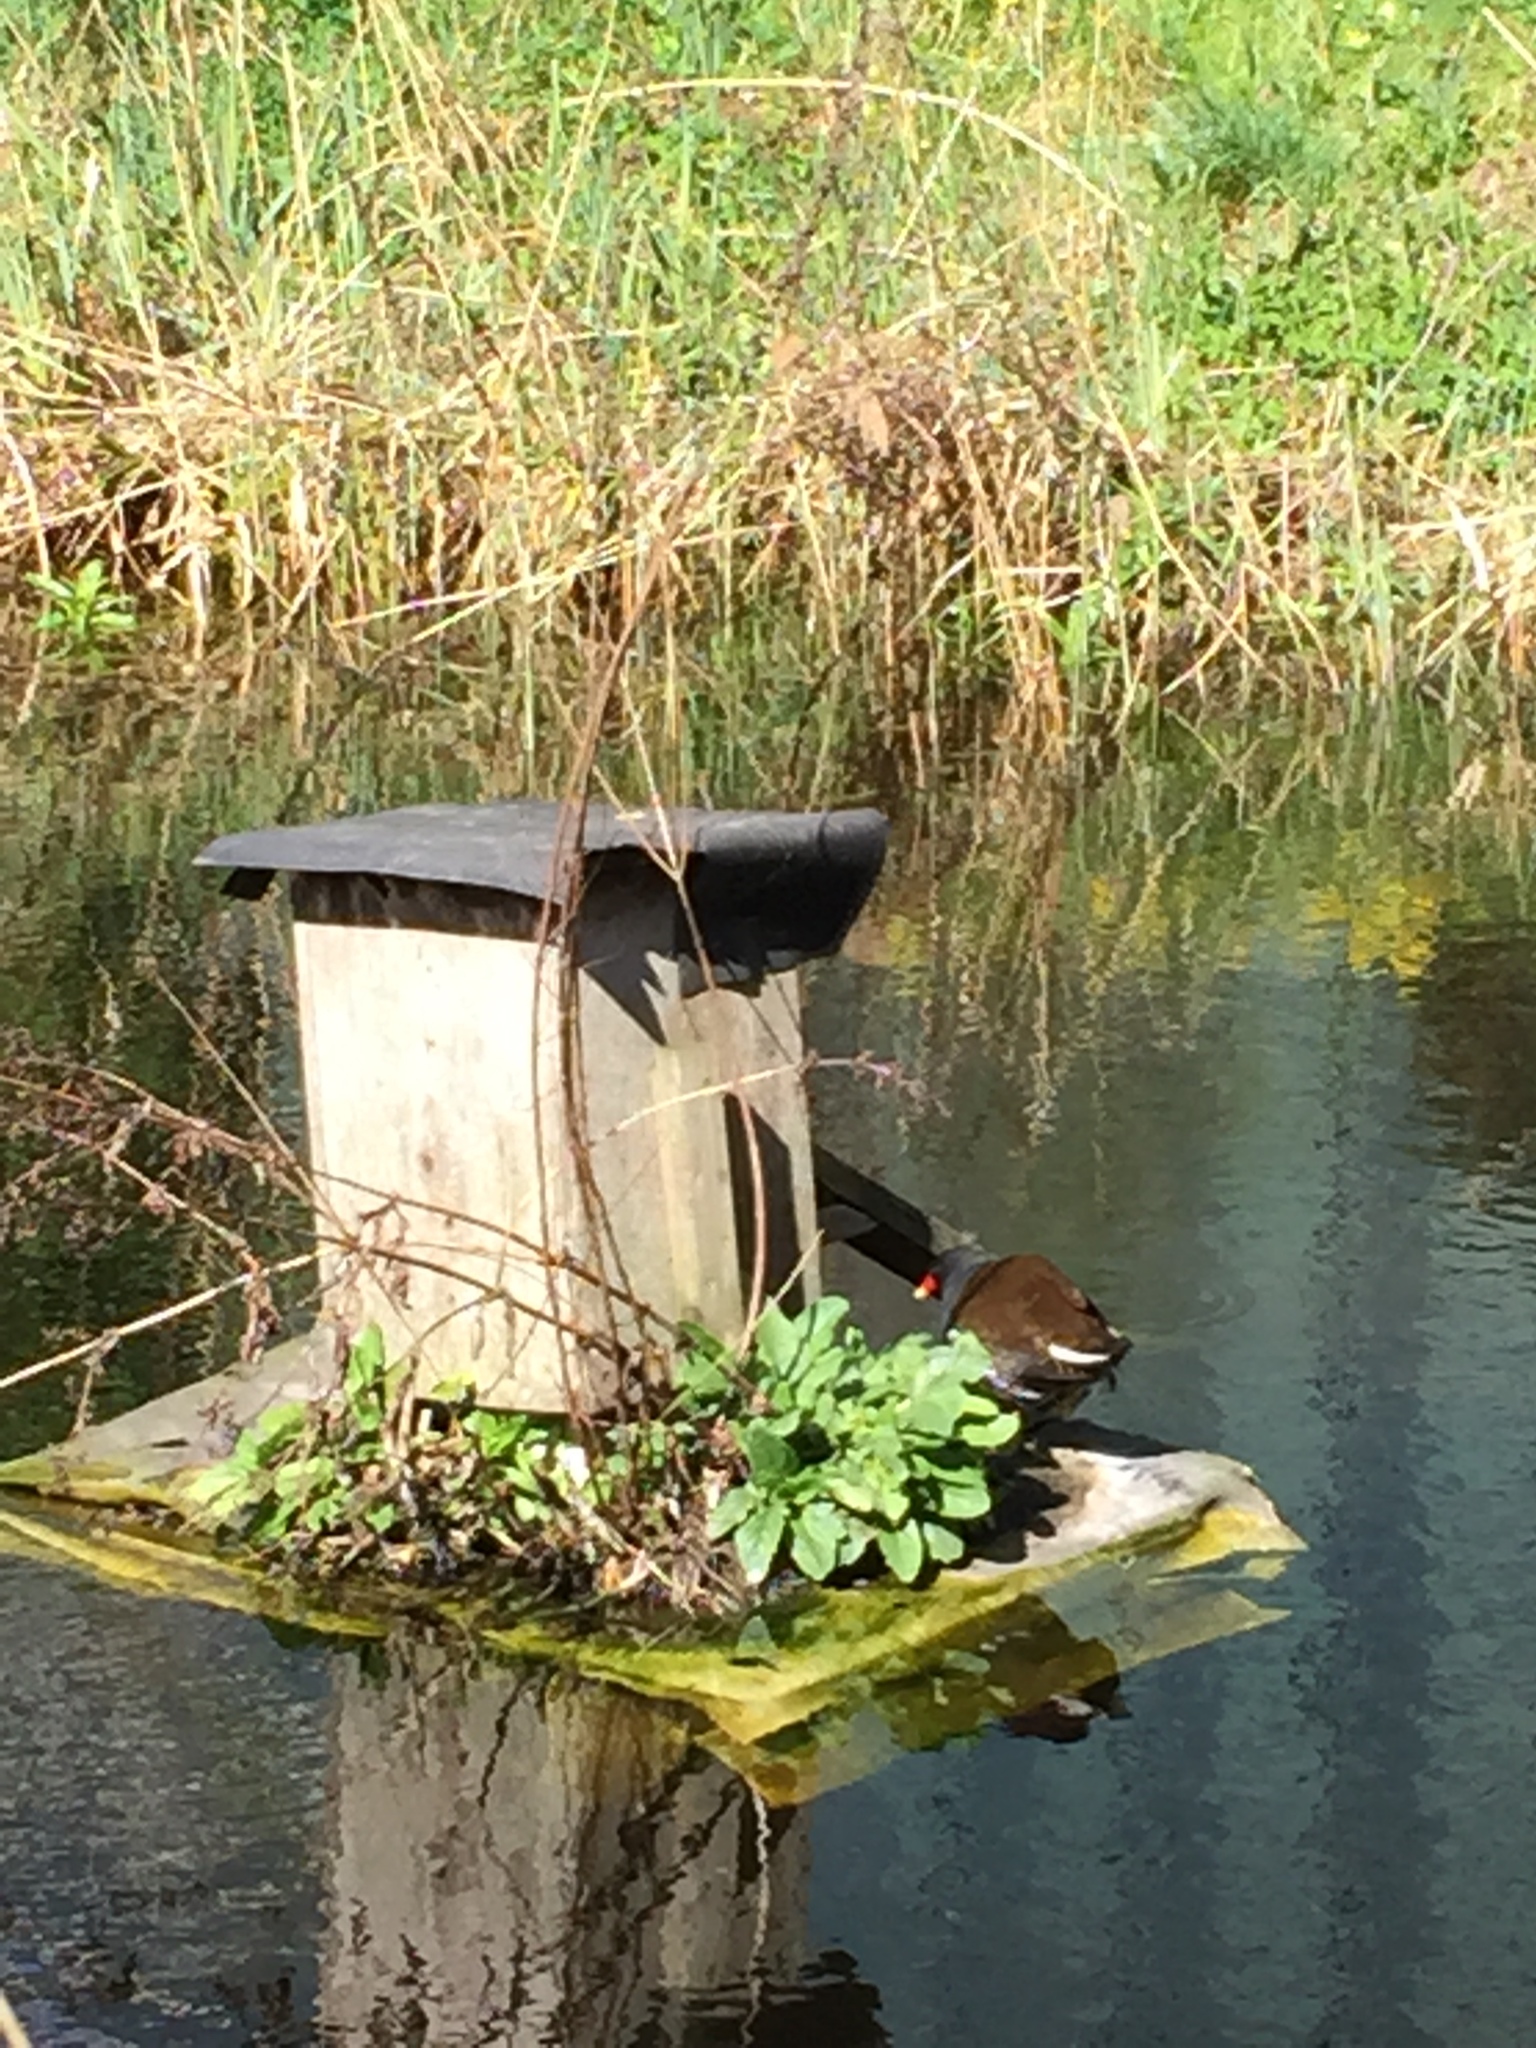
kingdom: Animalia
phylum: Chordata
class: Aves
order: Gruiformes
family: Rallidae
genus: Gallinula
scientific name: Gallinula chloropus
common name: Common moorhen
